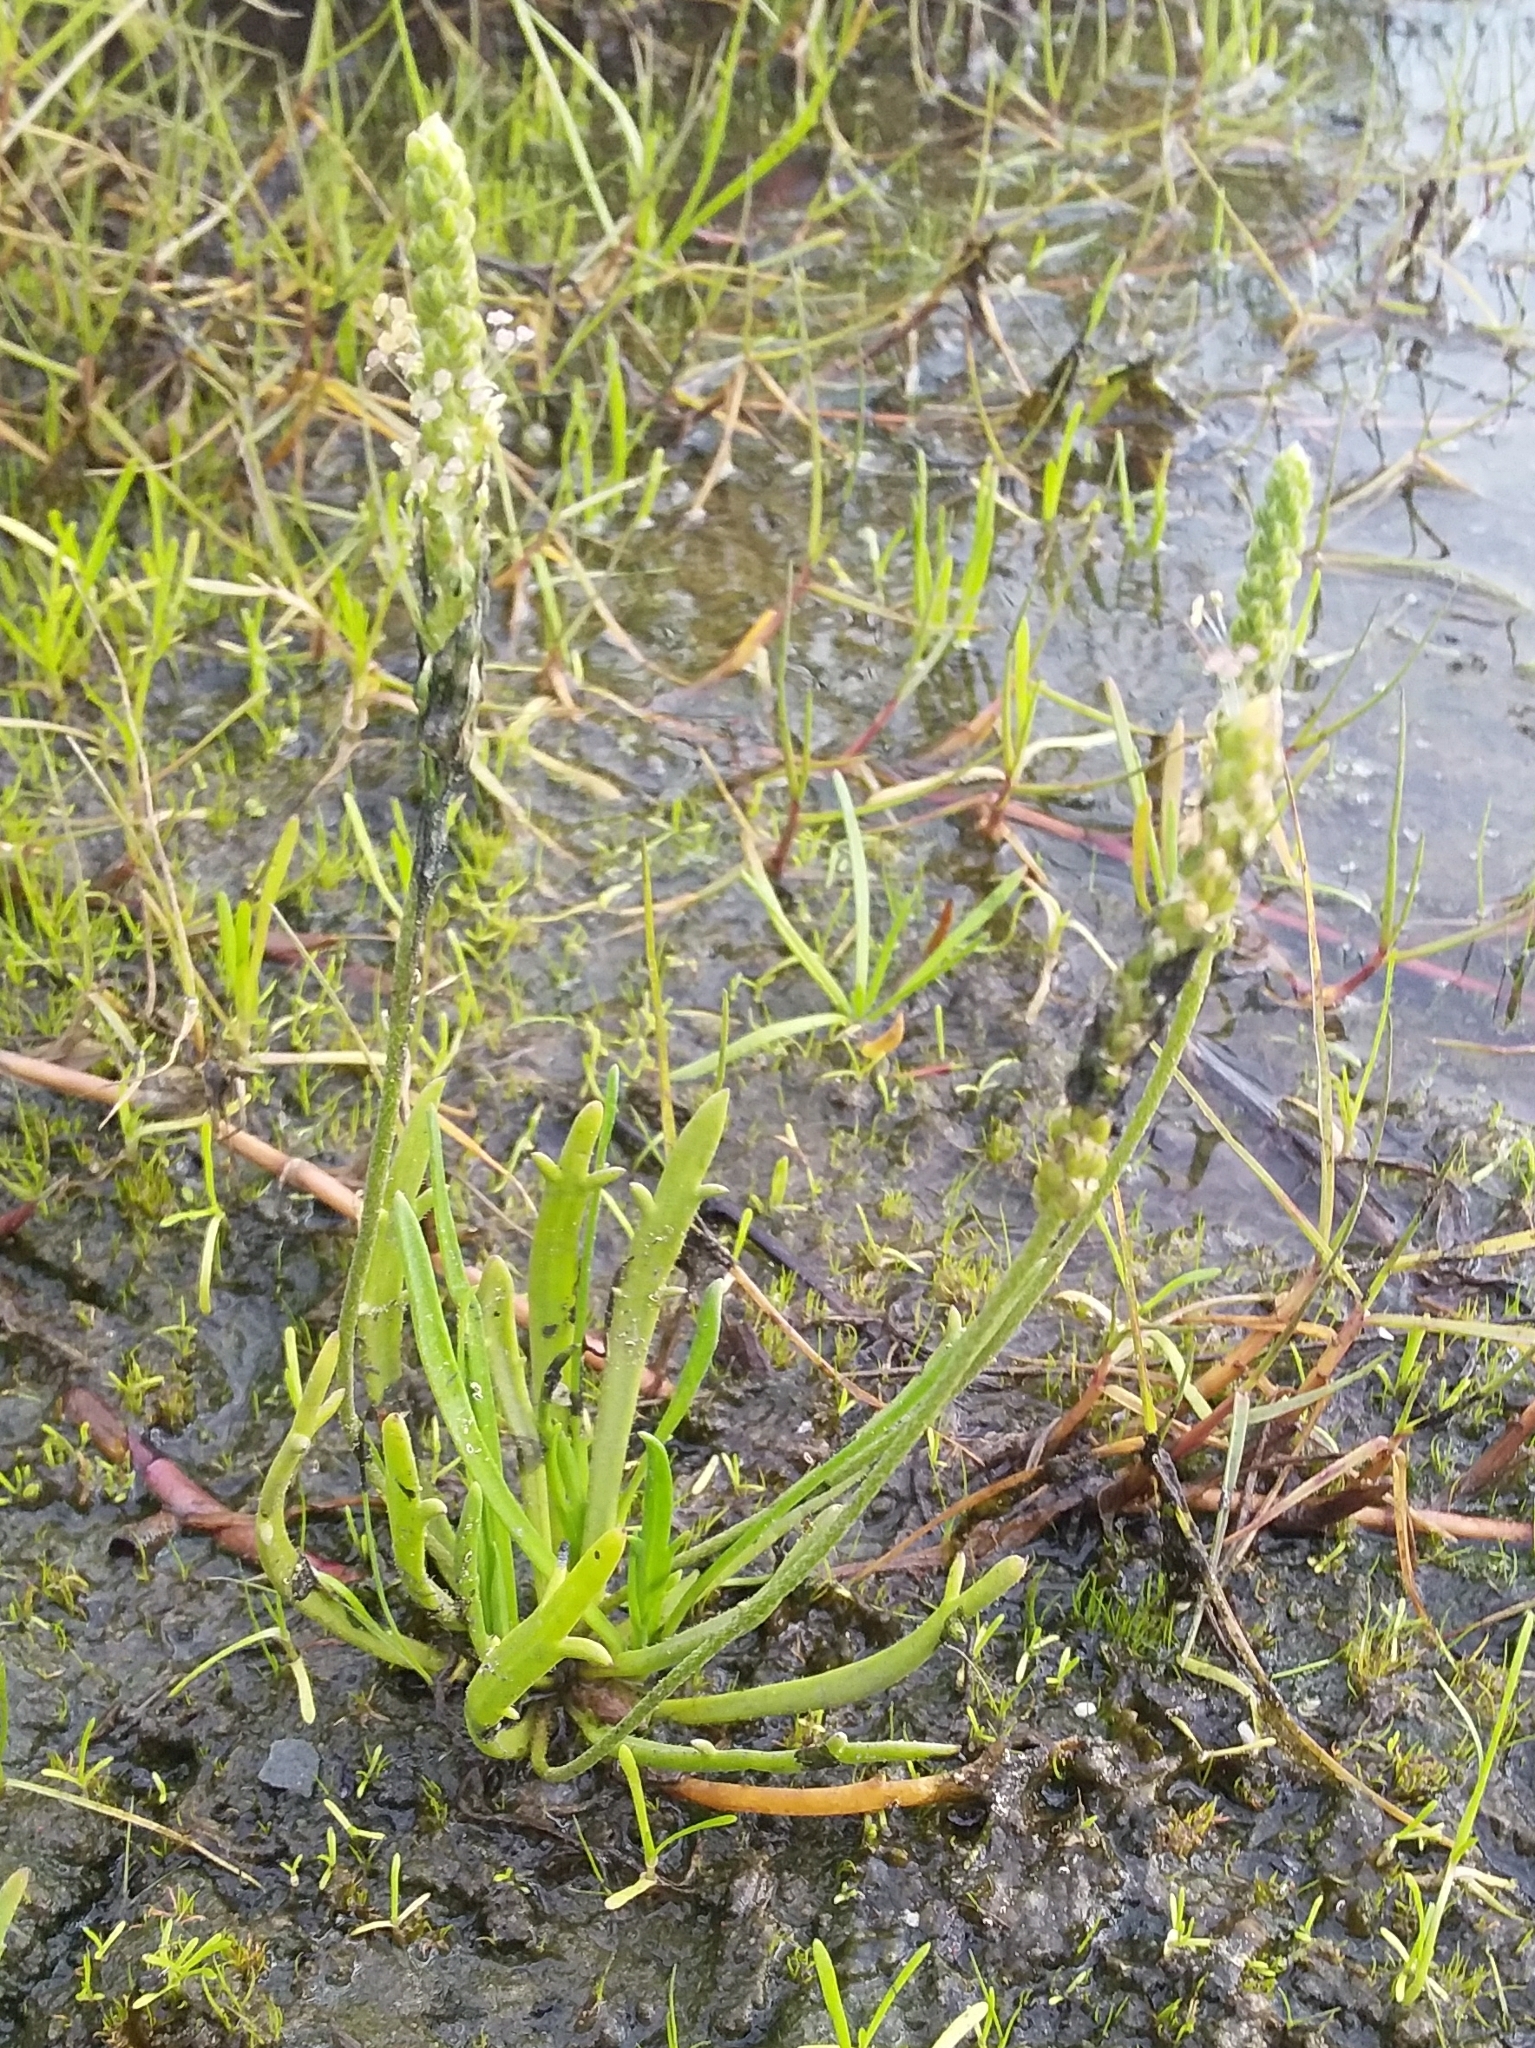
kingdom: Plantae
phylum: Tracheophyta
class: Magnoliopsida
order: Lamiales
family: Plantaginaceae
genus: Plantago
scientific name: Plantago coronopus
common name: Buck's-horn plantain
